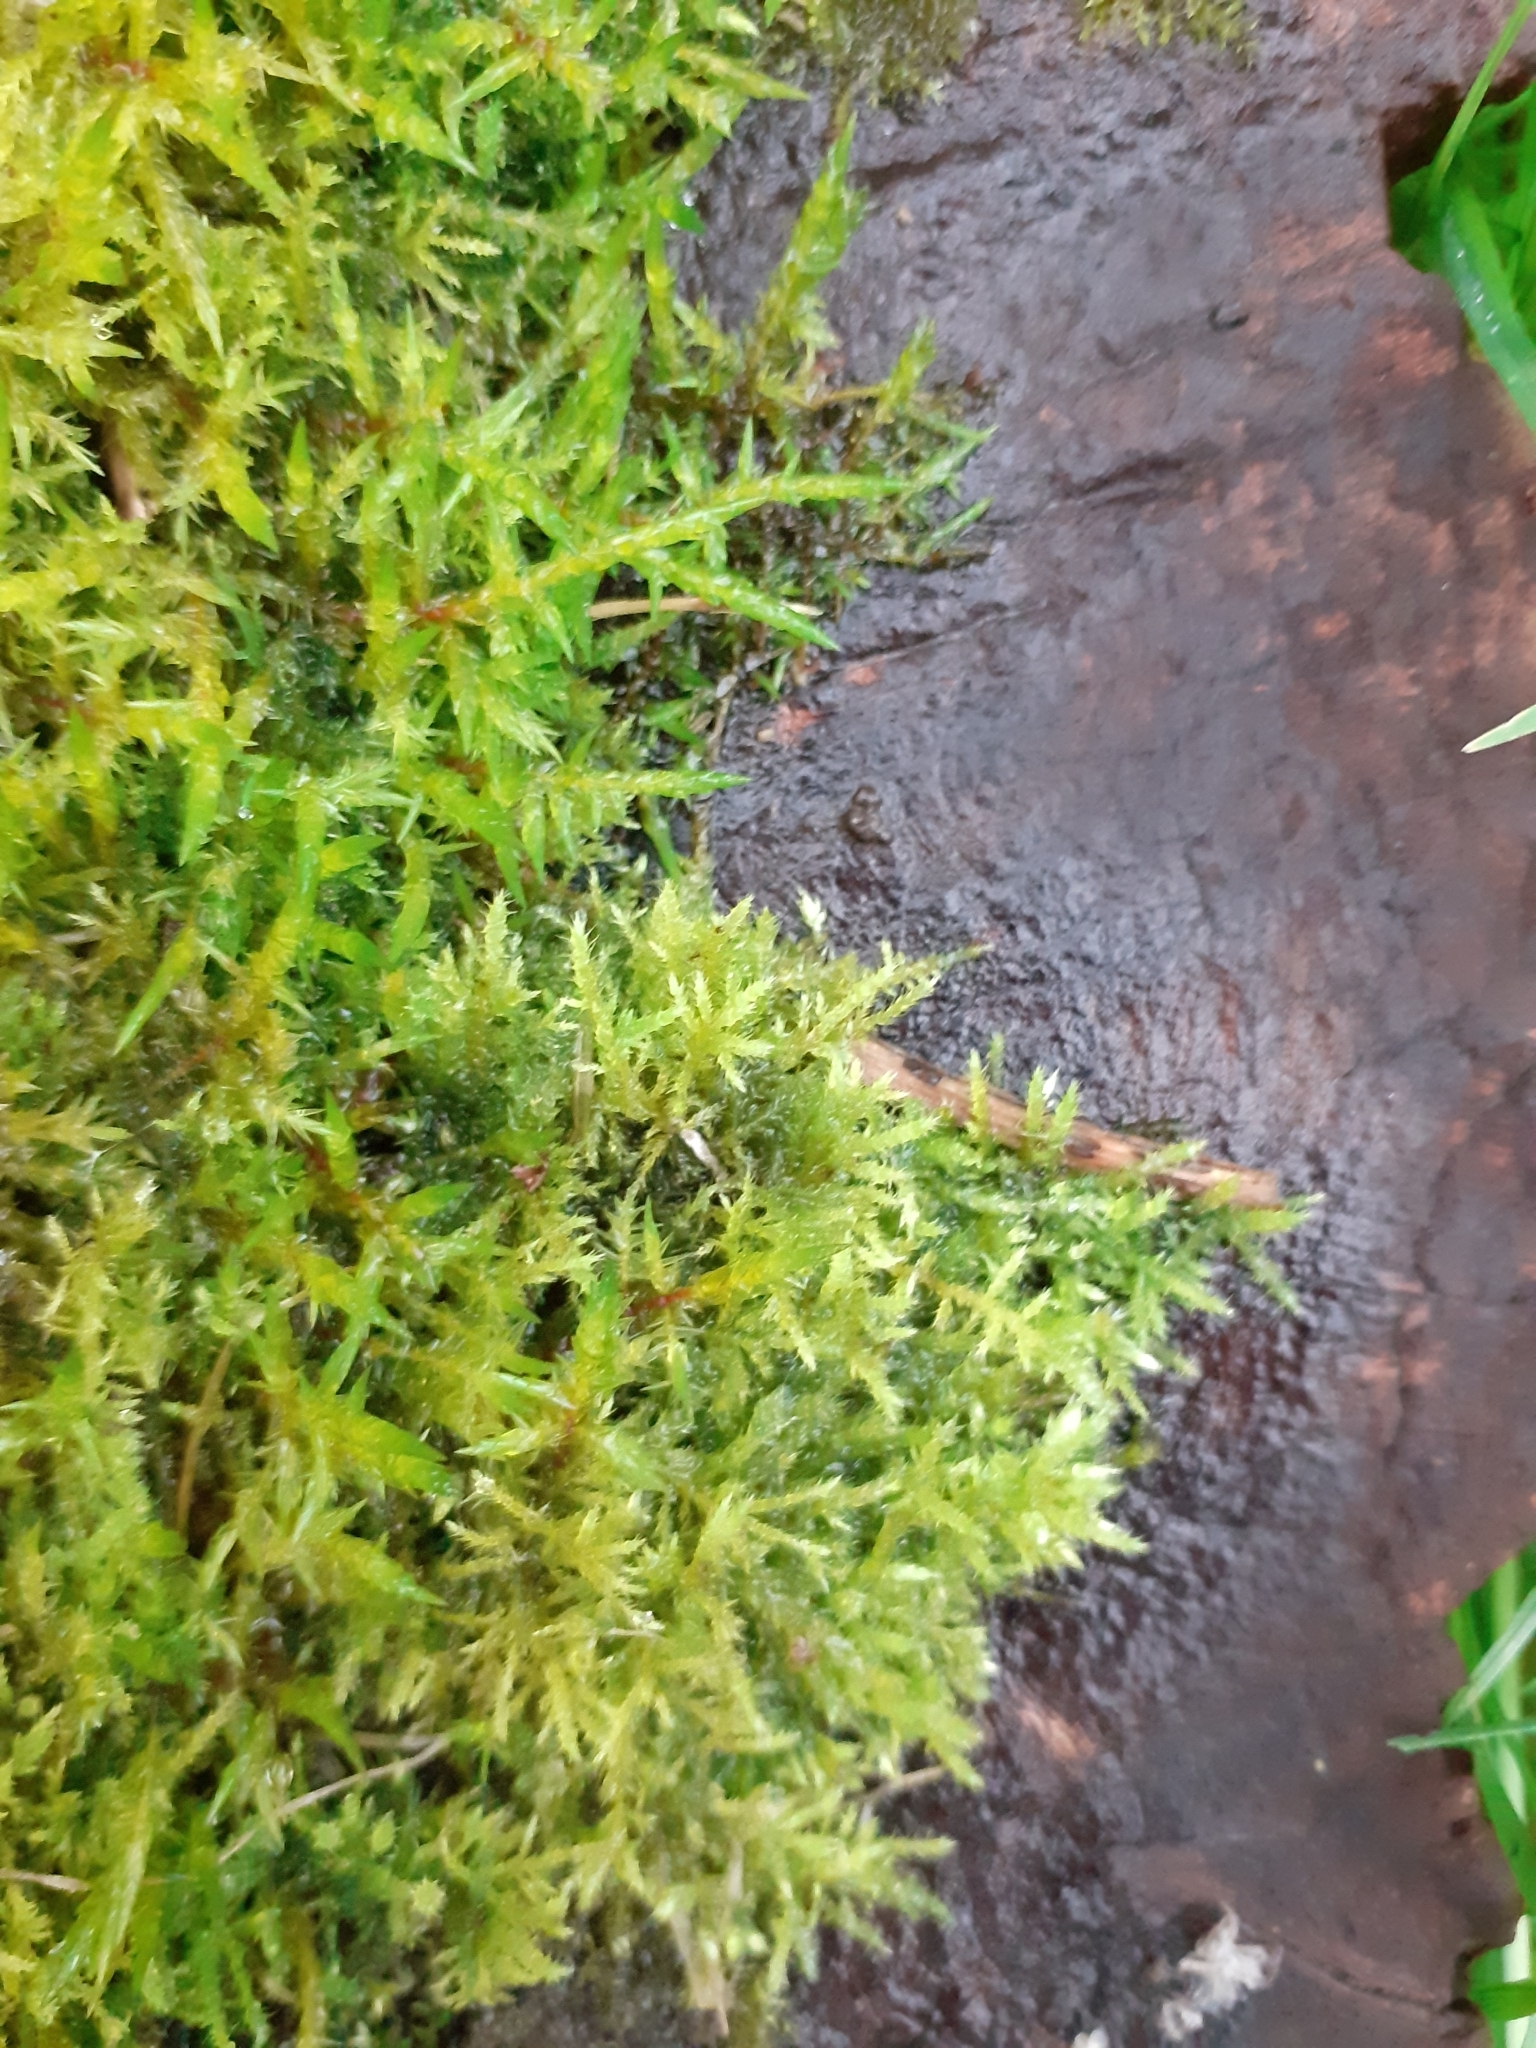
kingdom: Plantae
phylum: Bryophyta
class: Bryopsida
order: Hypnales
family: Pylaisiaceae
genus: Calliergonella
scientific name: Calliergonella cuspidata
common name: Common large wetland moss
